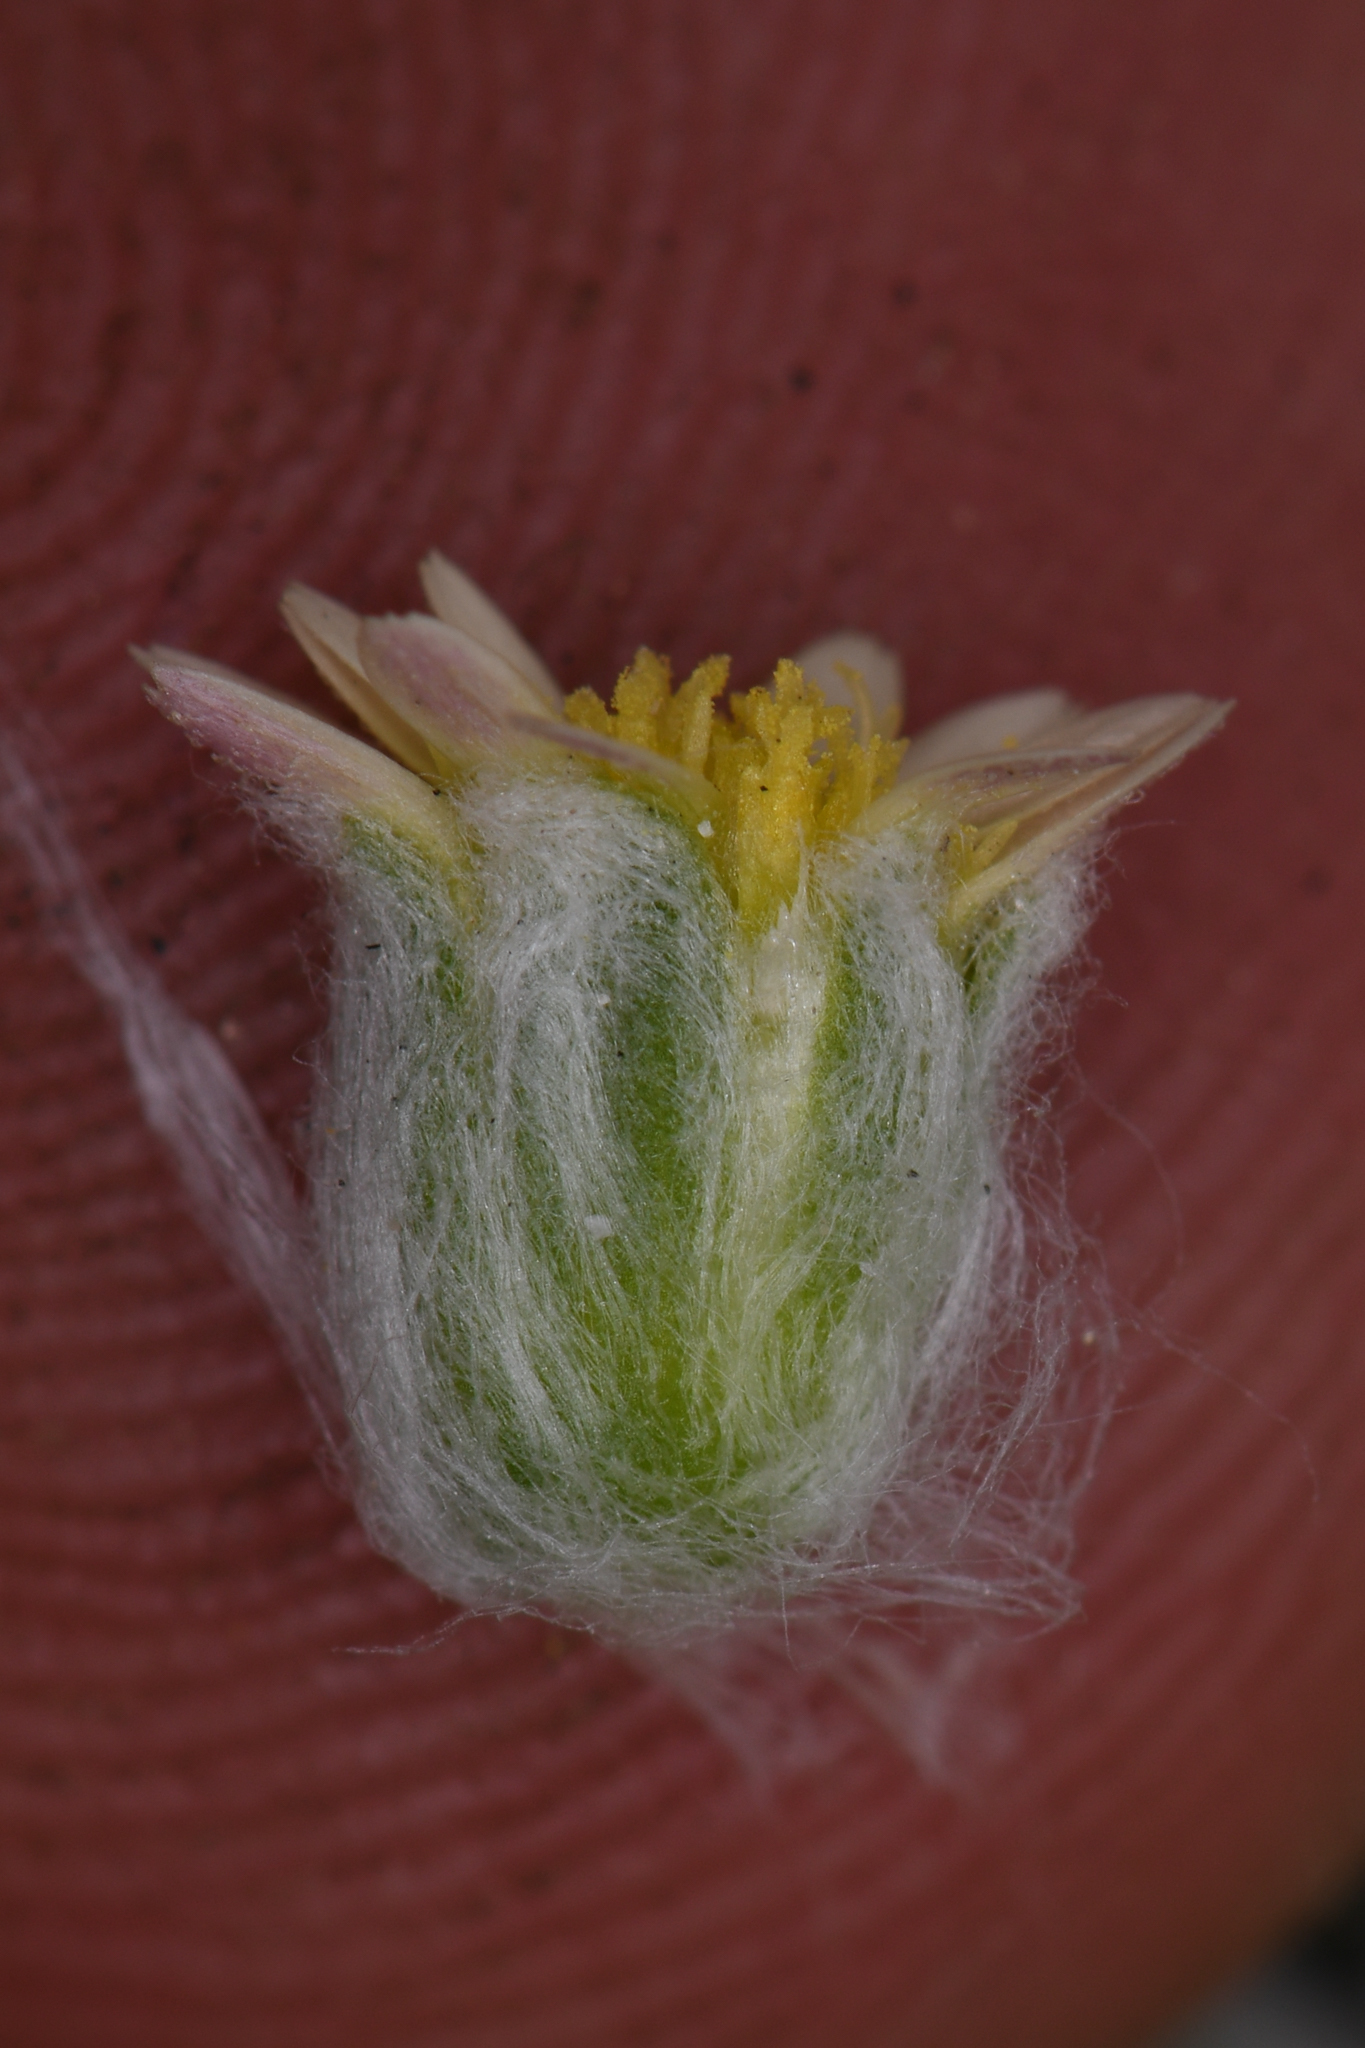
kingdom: Plantae
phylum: Tracheophyta
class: Magnoliopsida
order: Asterales
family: Asteraceae
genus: Eatonella
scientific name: Eatonella nivea
